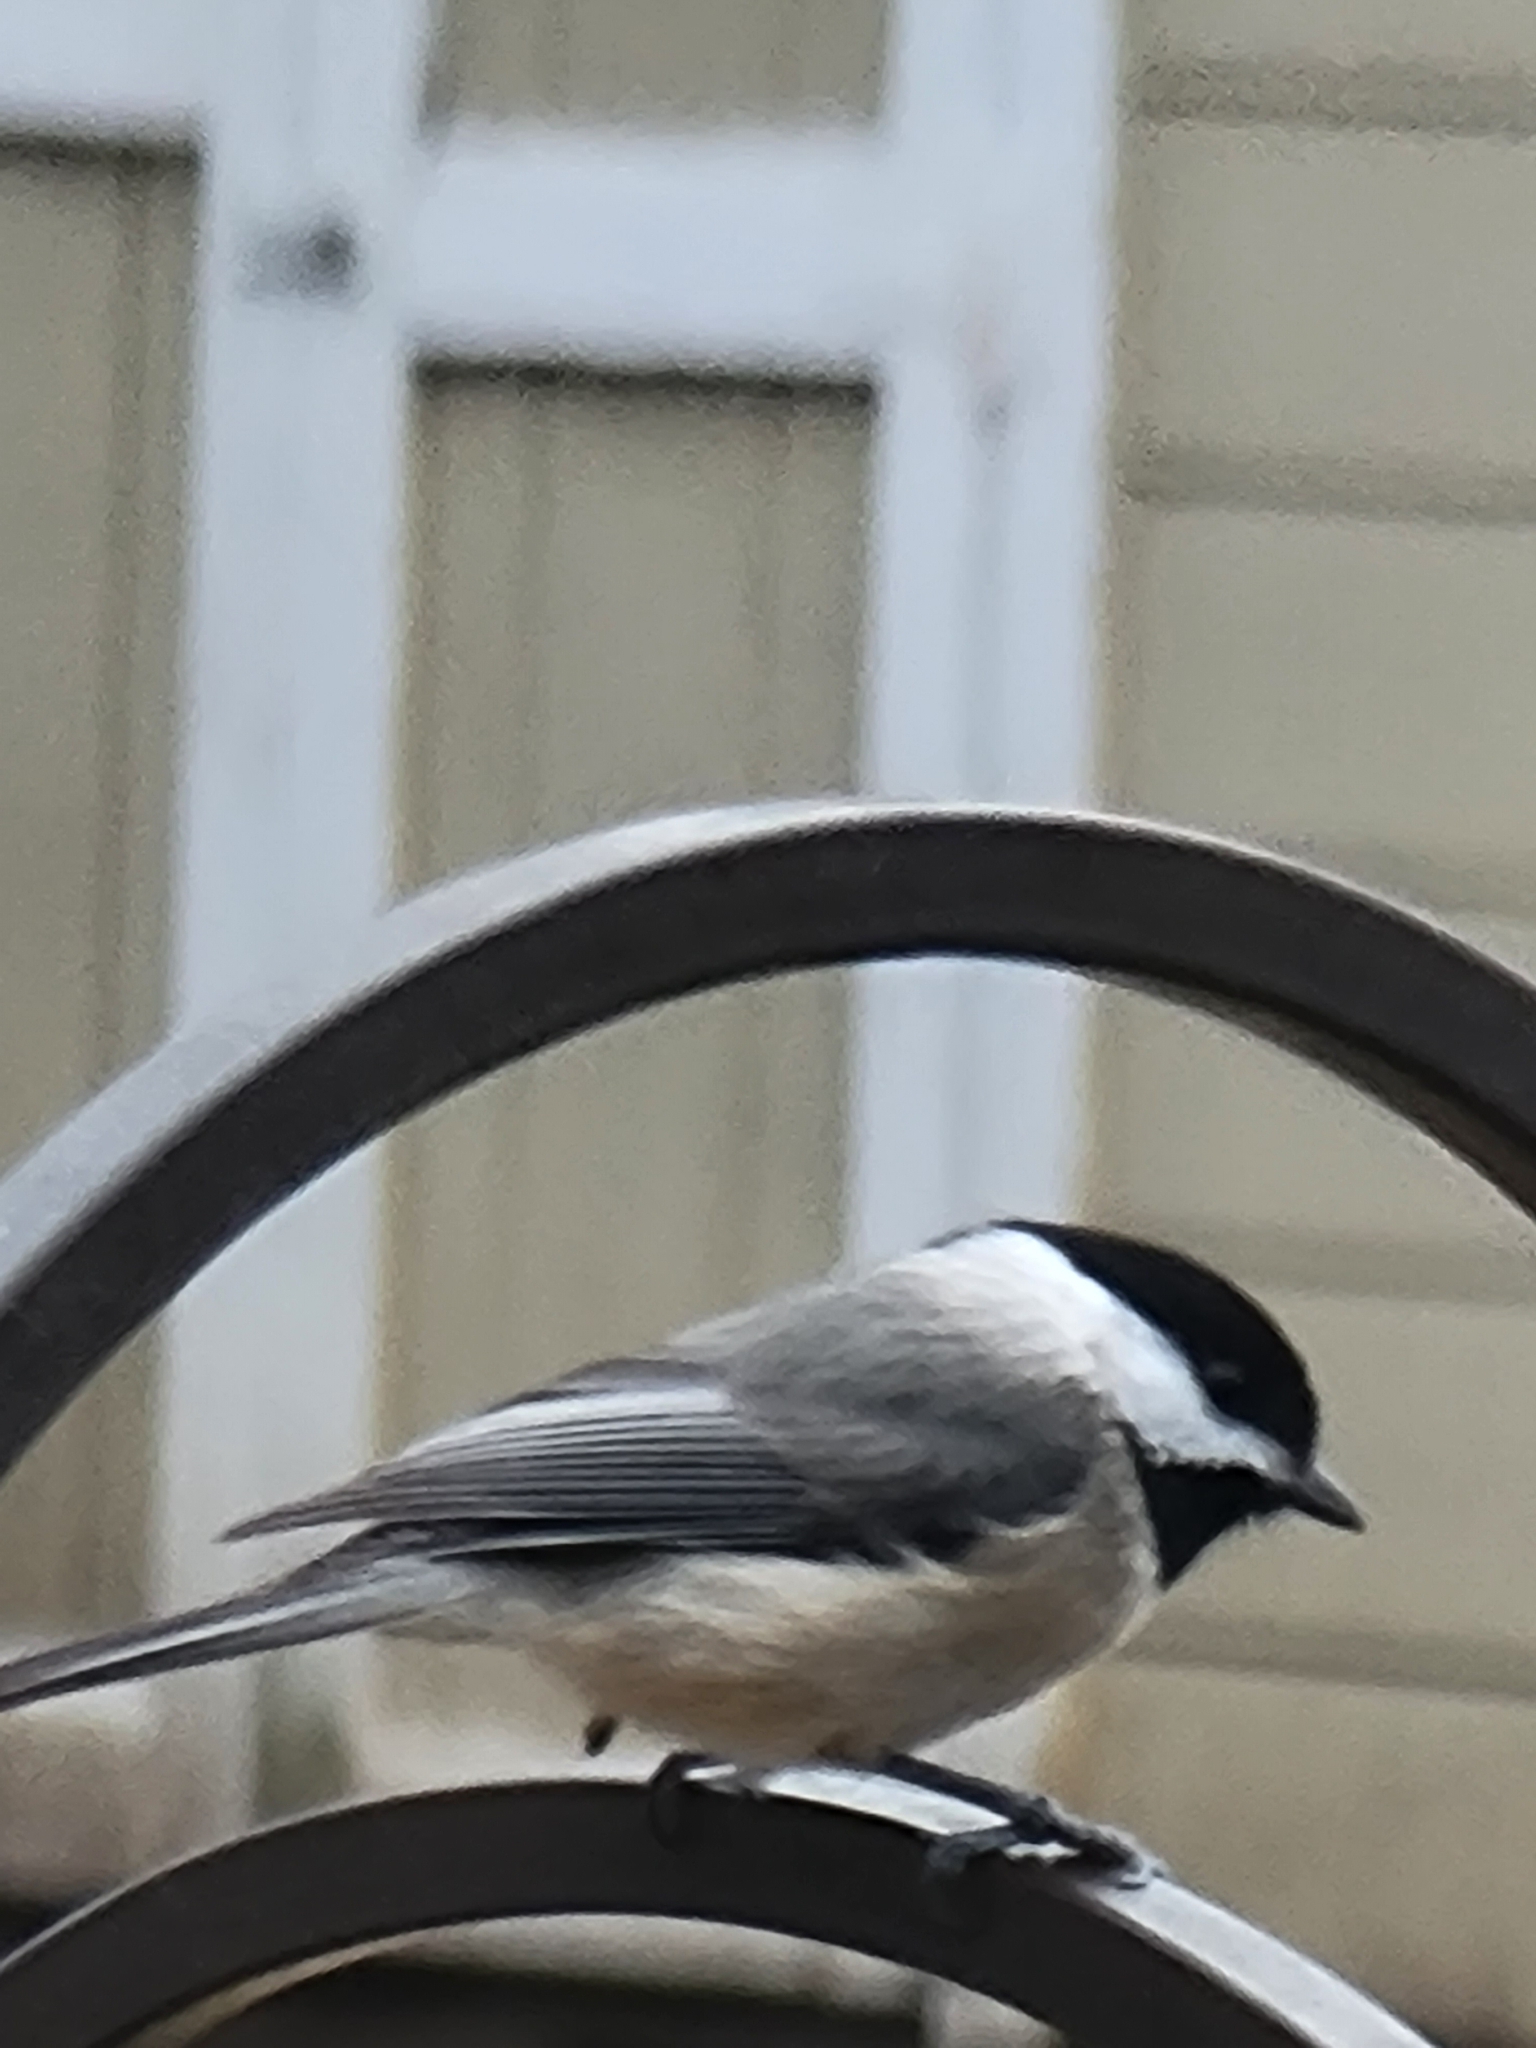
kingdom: Animalia
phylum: Chordata
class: Aves
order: Passeriformes
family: Paridae
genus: Poecile
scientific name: Poecile carolinensis
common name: Carolina chickadee
